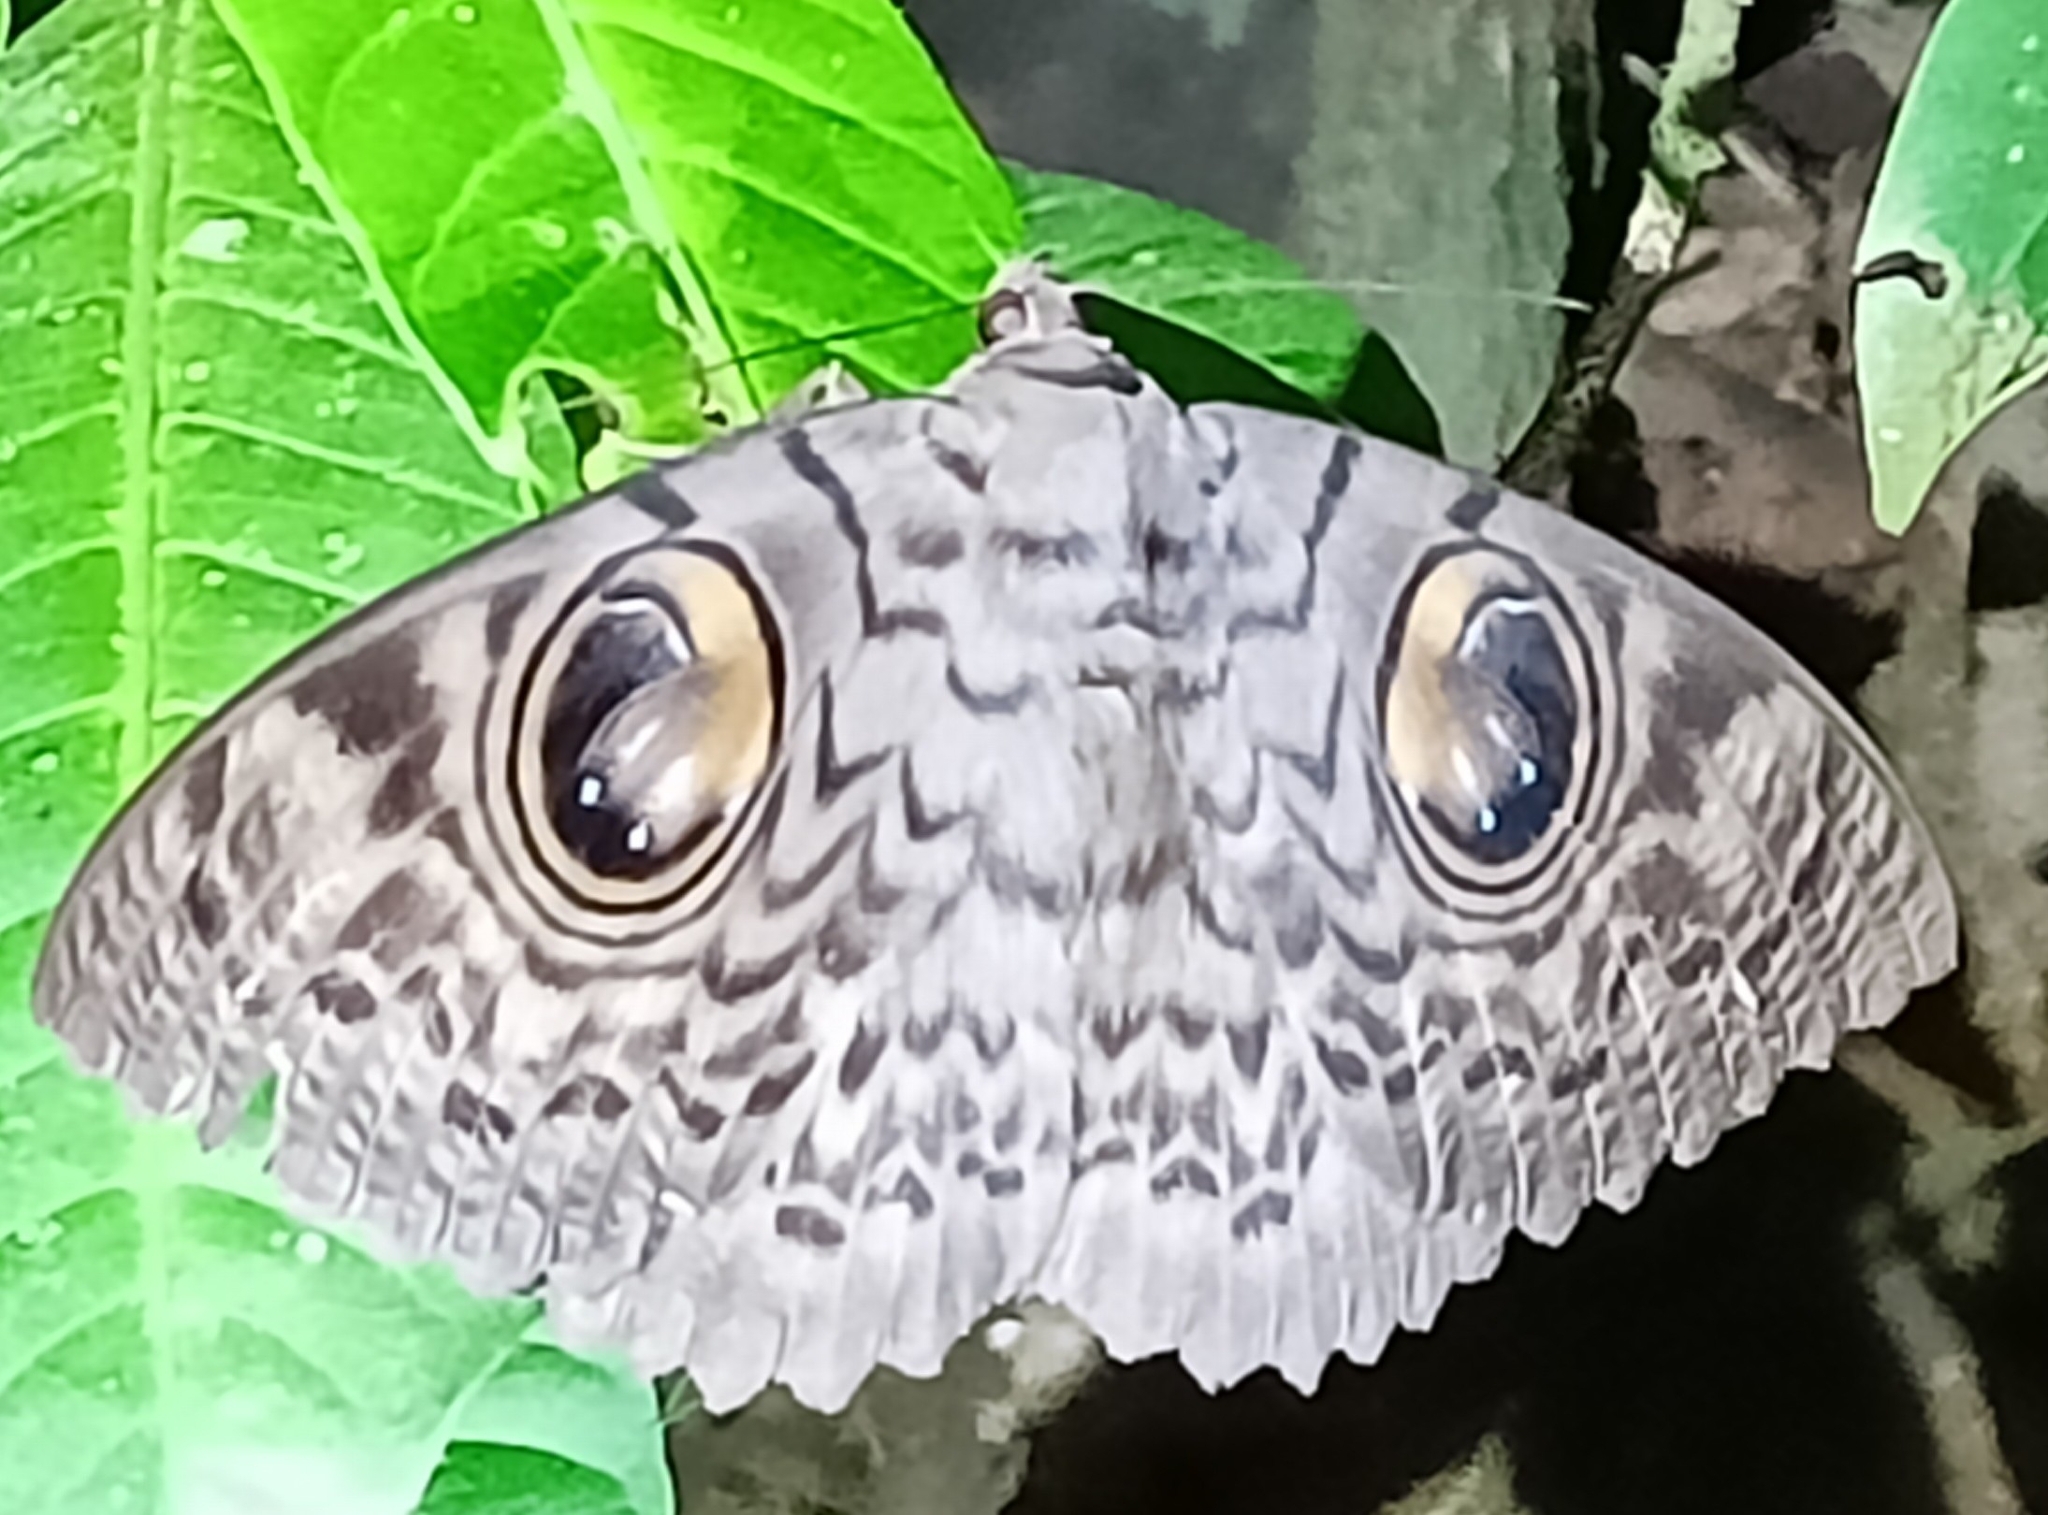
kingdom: Animalia
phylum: Arthropoda
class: Insecta
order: Lepidoptera
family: Erebidae
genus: Erebus
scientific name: Erebus macrops
